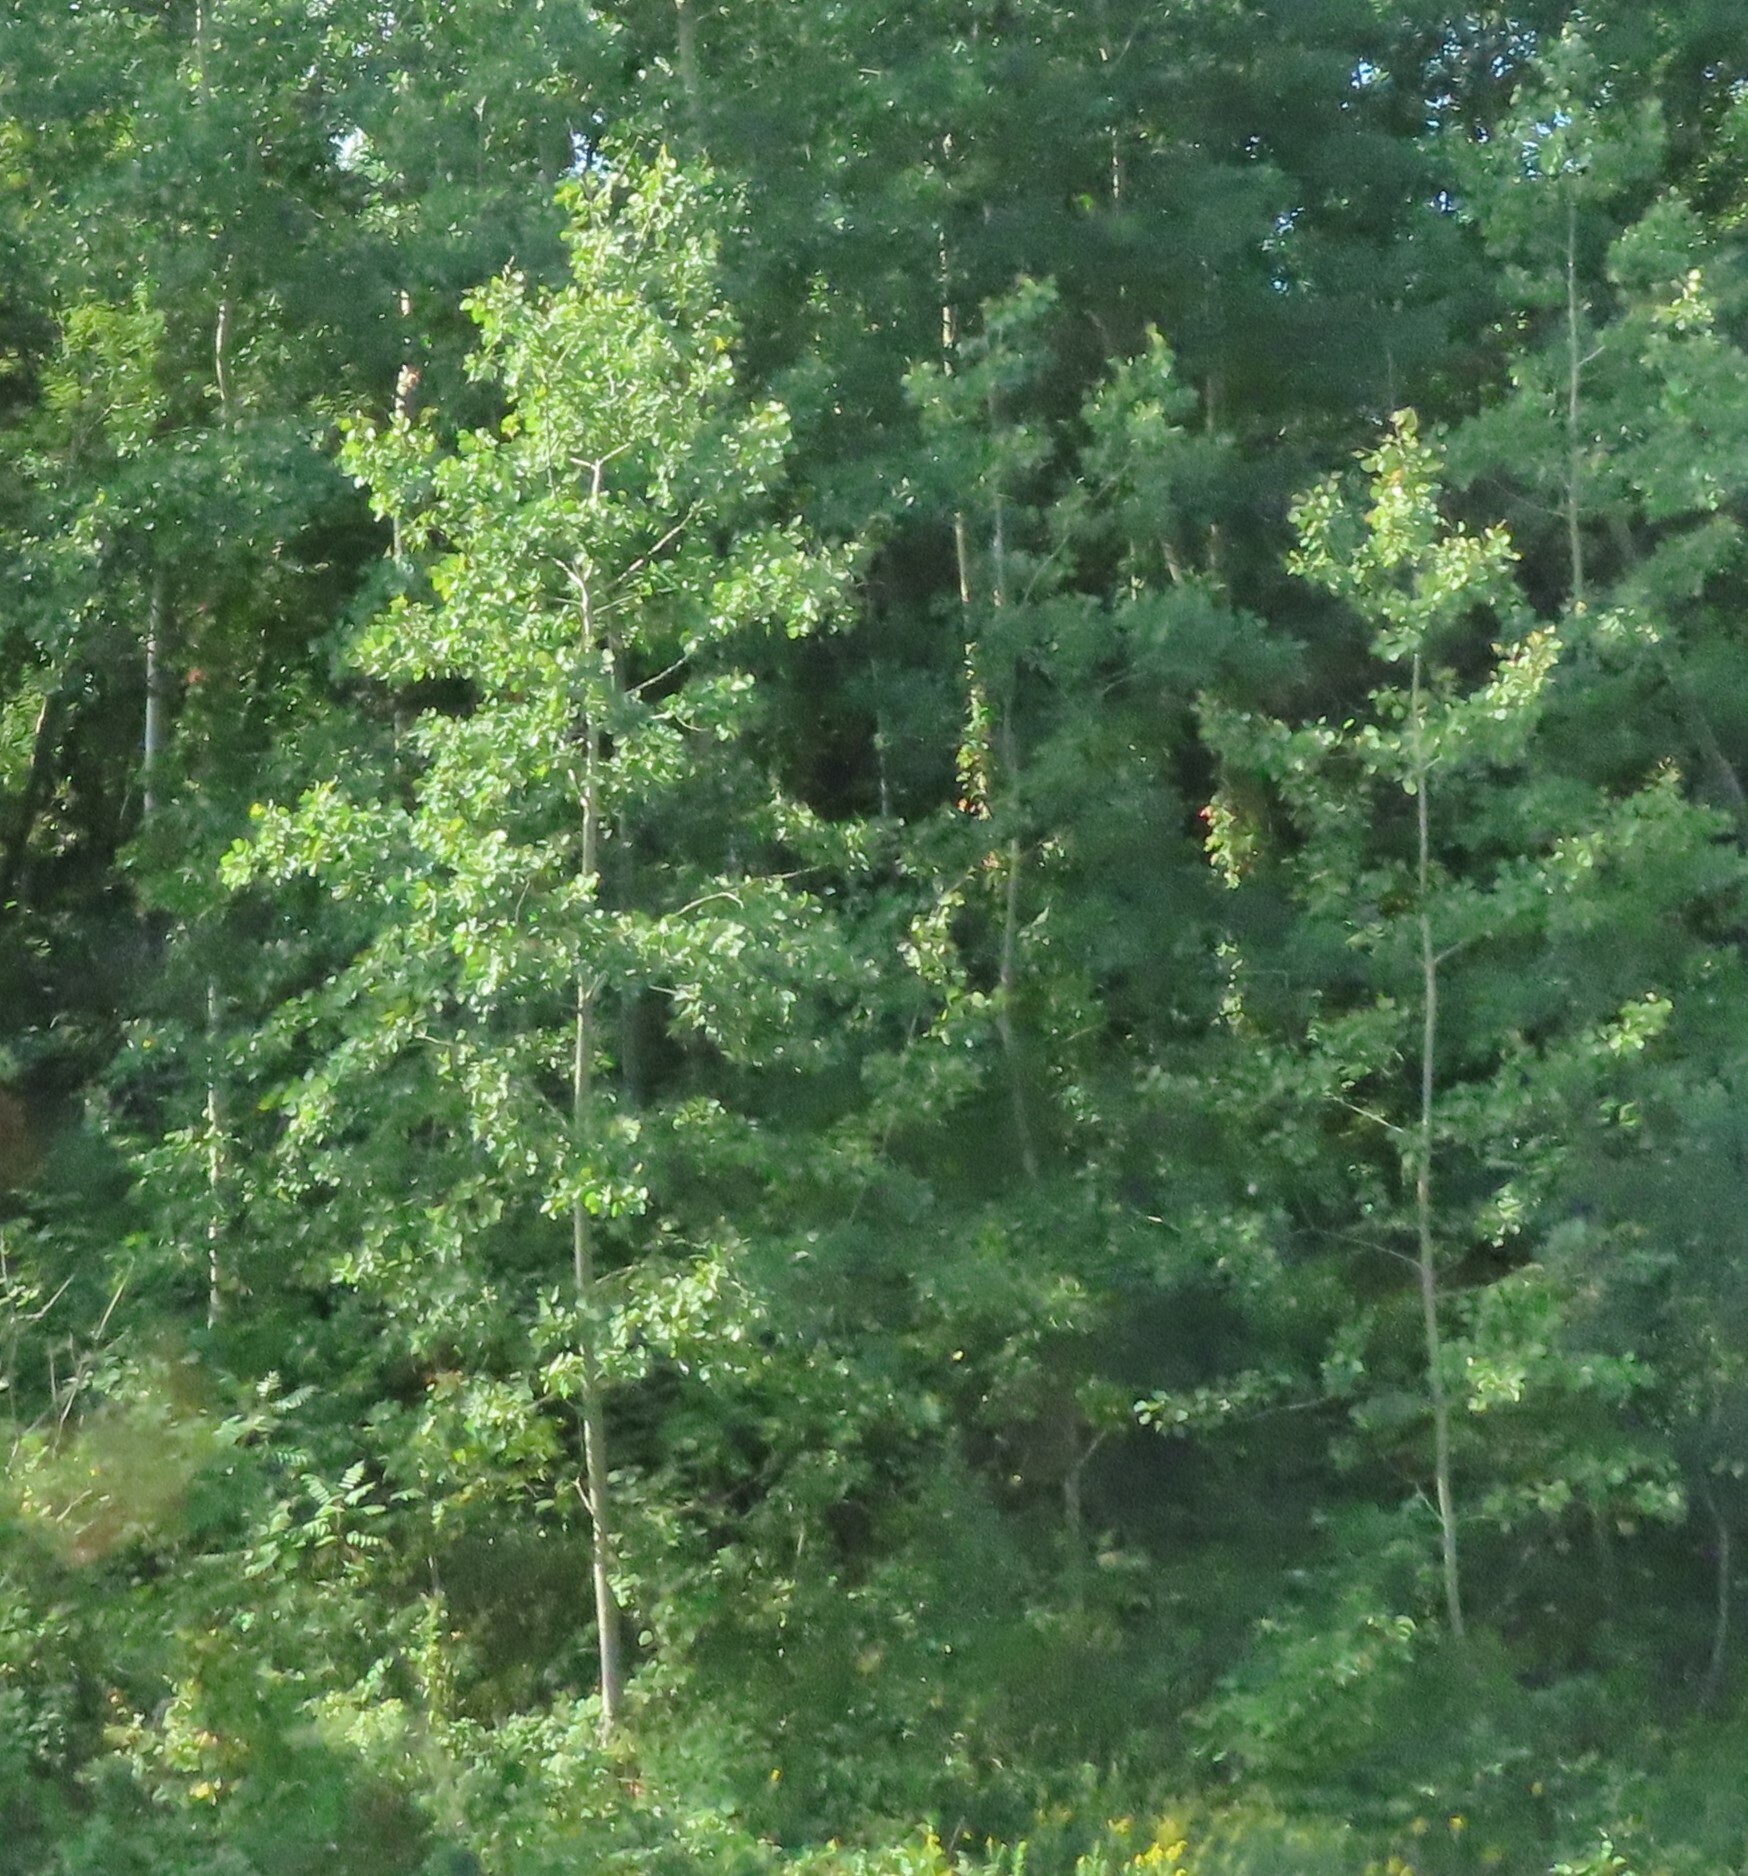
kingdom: Plantae
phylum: Tracheophyta
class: Magnoliopsida
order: Malpighiales
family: Salicaceae
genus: Populus
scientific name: Populus tremuloides
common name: Quaking aspen
